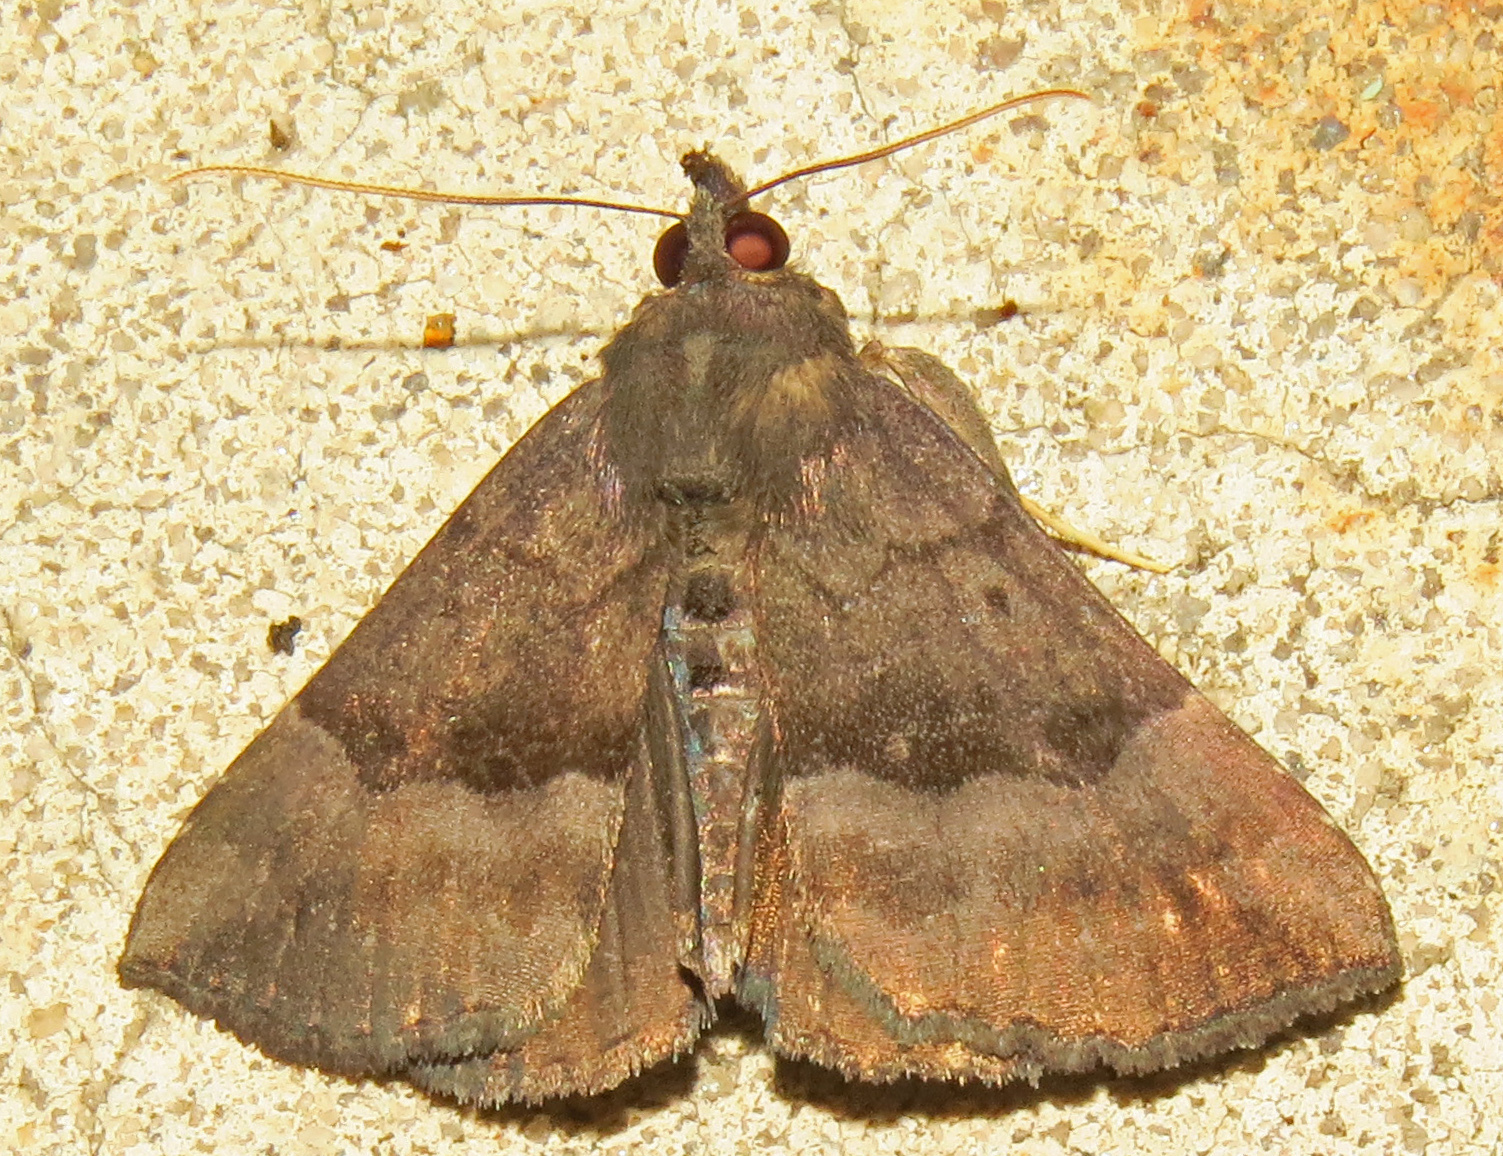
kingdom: Animalia
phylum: Arthropoda
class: Insecta
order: Lepidoptera
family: Erebidae
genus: Hypena
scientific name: Hypena madefactalis
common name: Gray-edged snout
